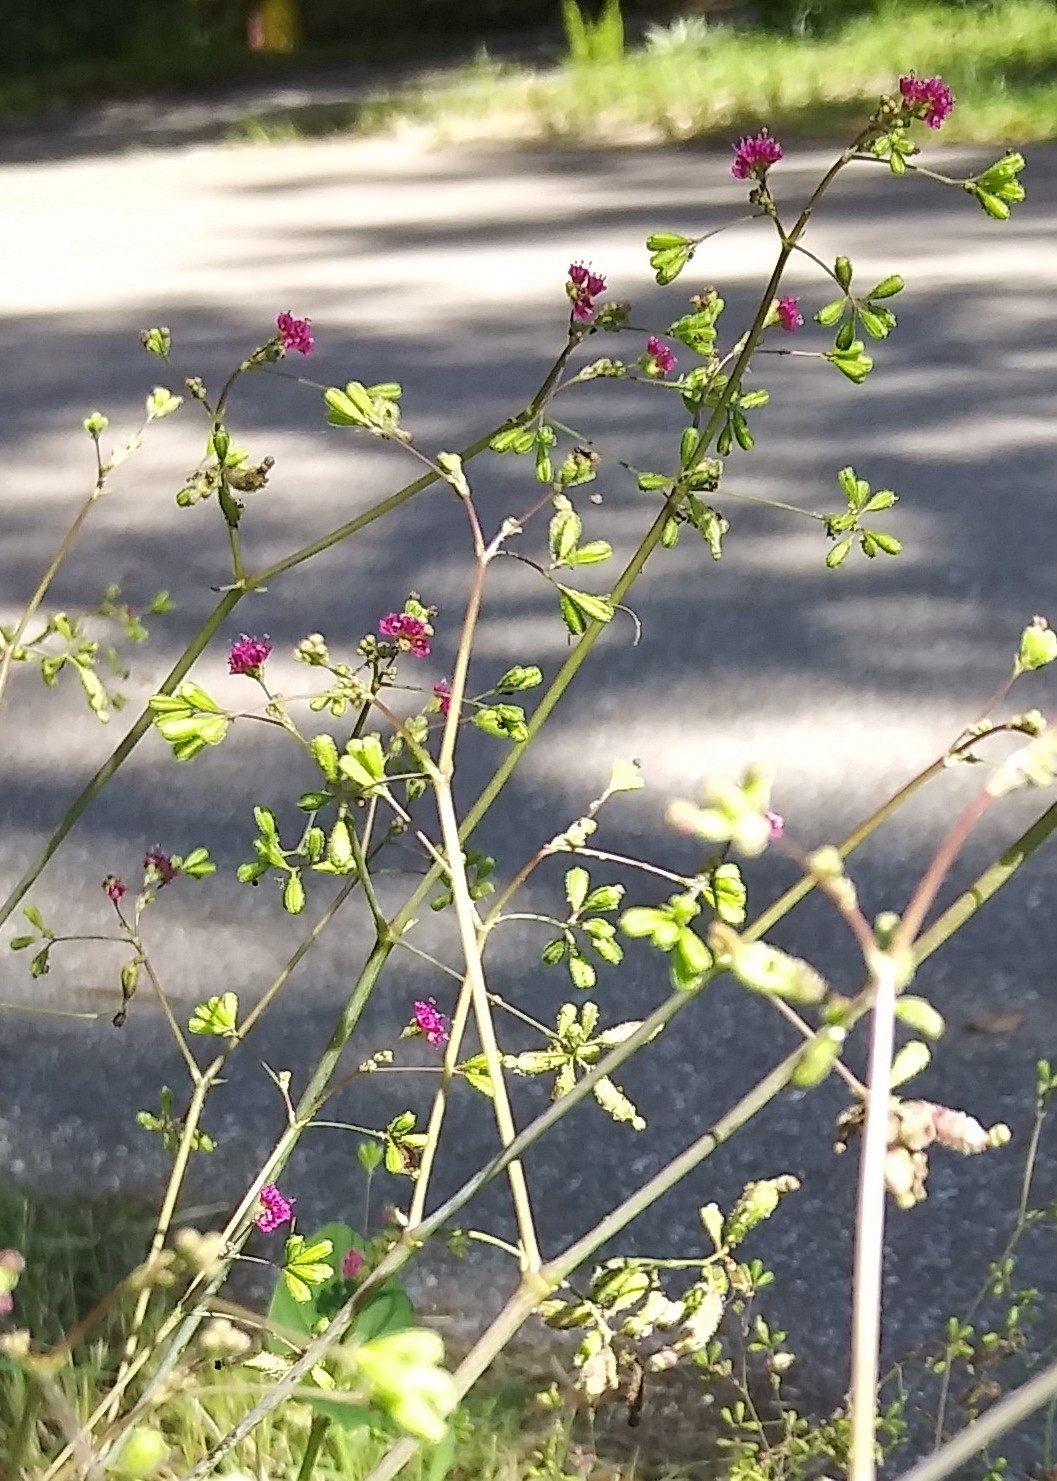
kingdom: Plantae
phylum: Tracheophyta
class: Magnoliopsida
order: Caryophyllales
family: Nyctaginaceae
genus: Boerhavia
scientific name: Boerhavia diffusa
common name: Red spiderling
